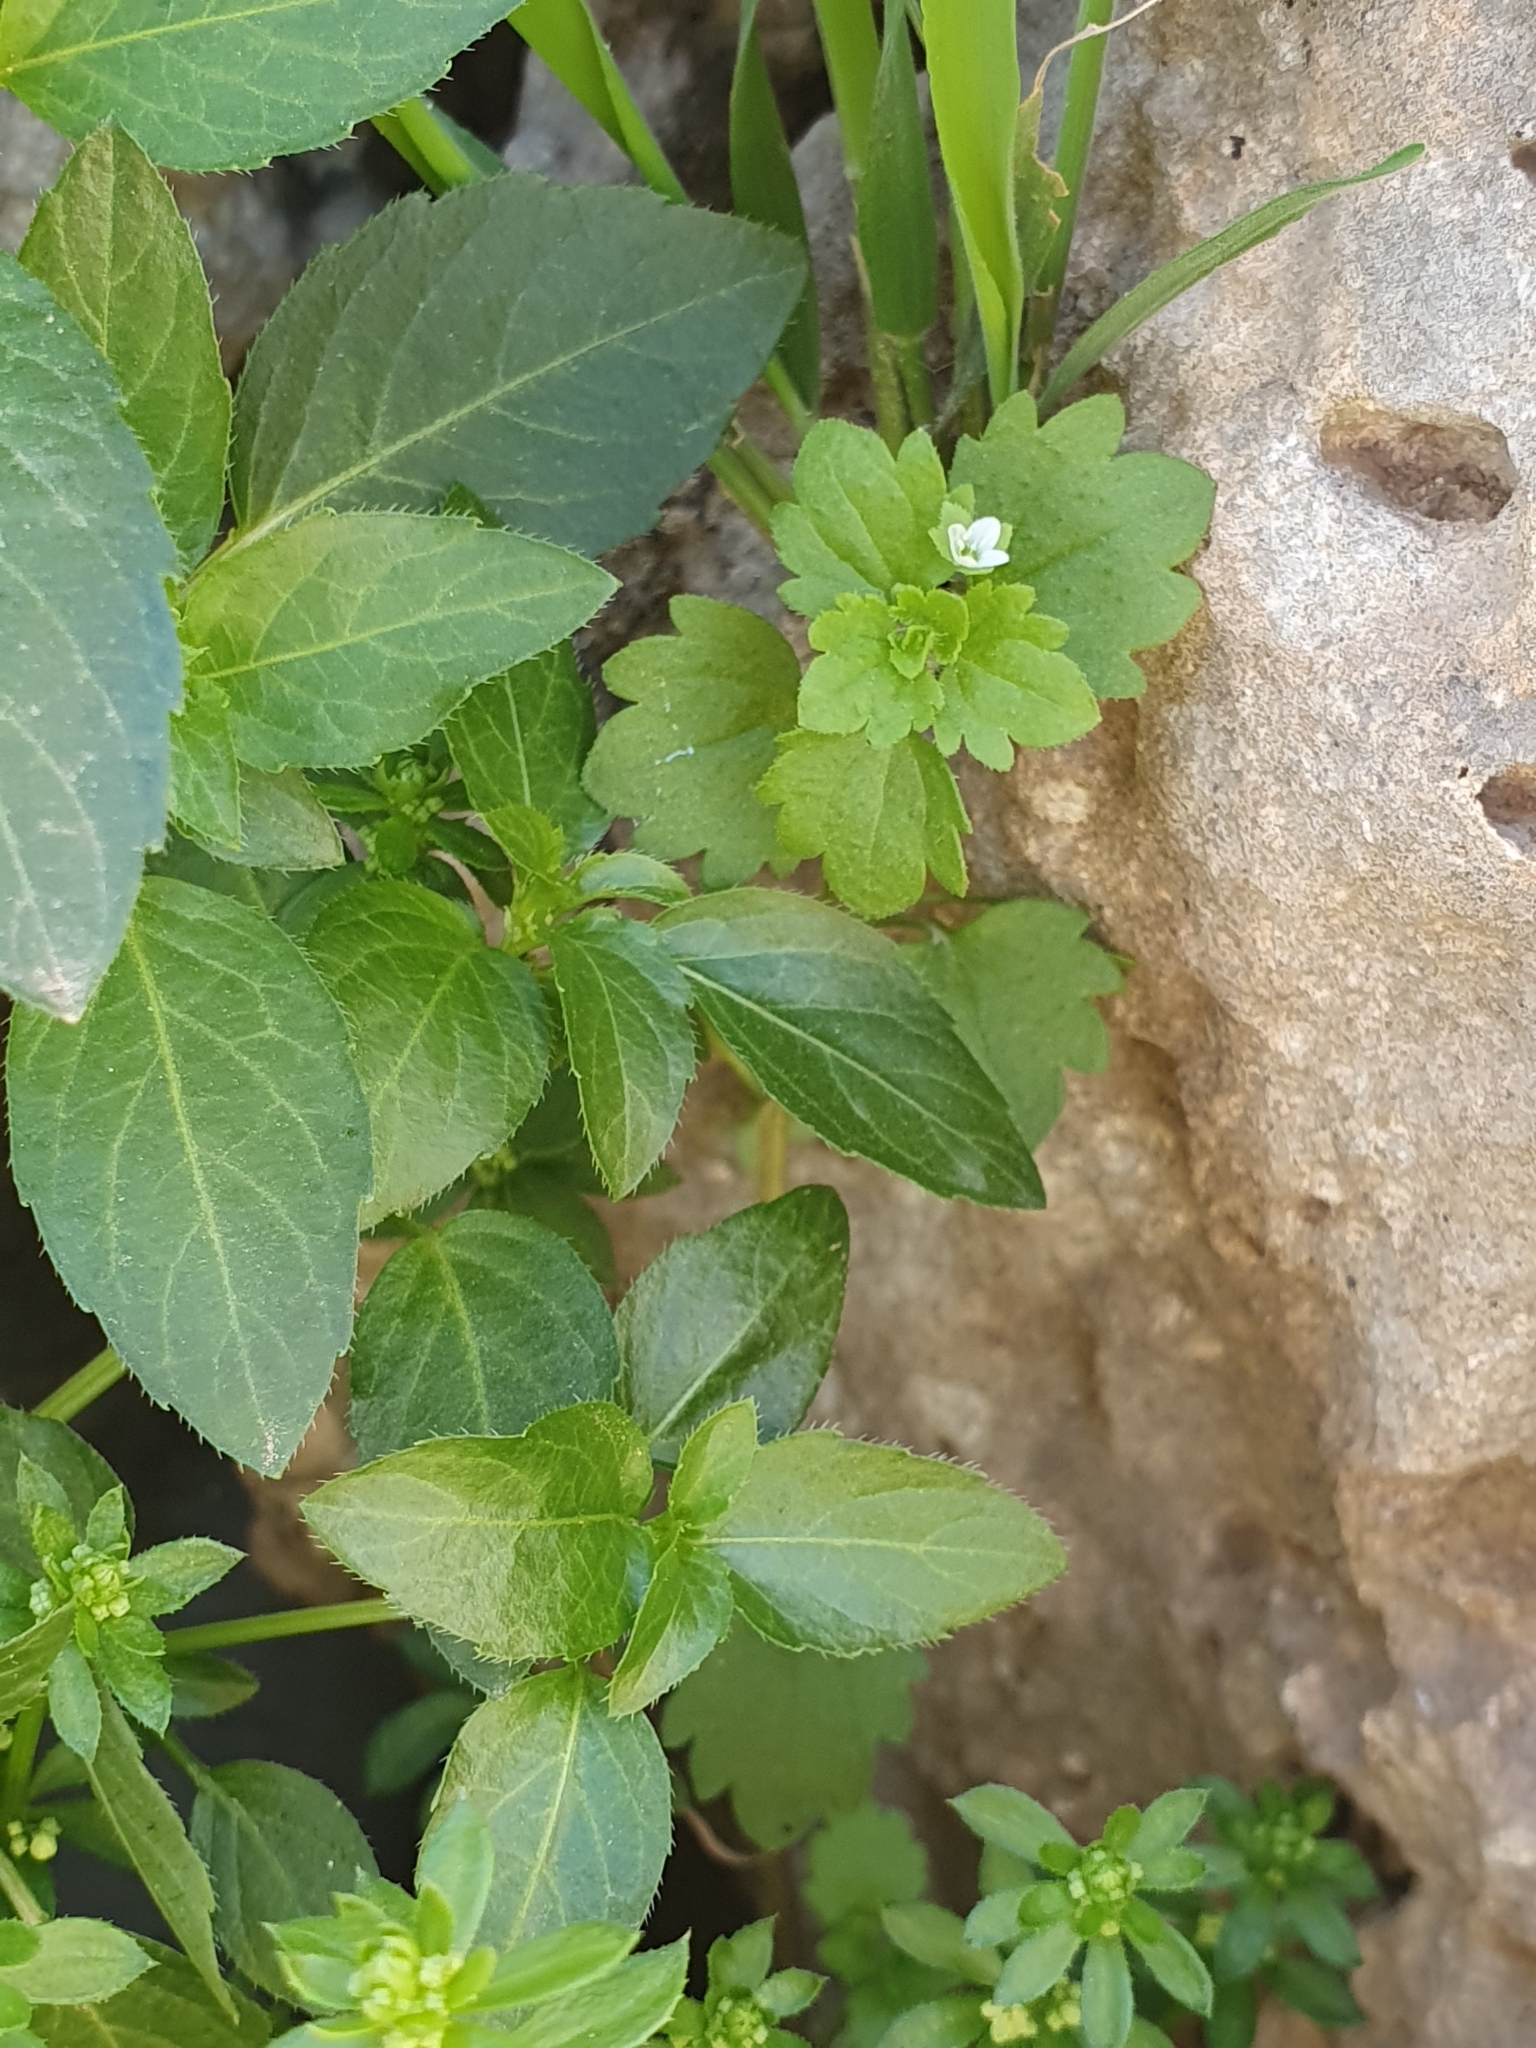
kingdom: Plantae
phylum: Tracheophyta
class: Magnoliopsida
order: Lamiales
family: Plantaginaceae
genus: Veronica
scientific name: Veronica panormitana
